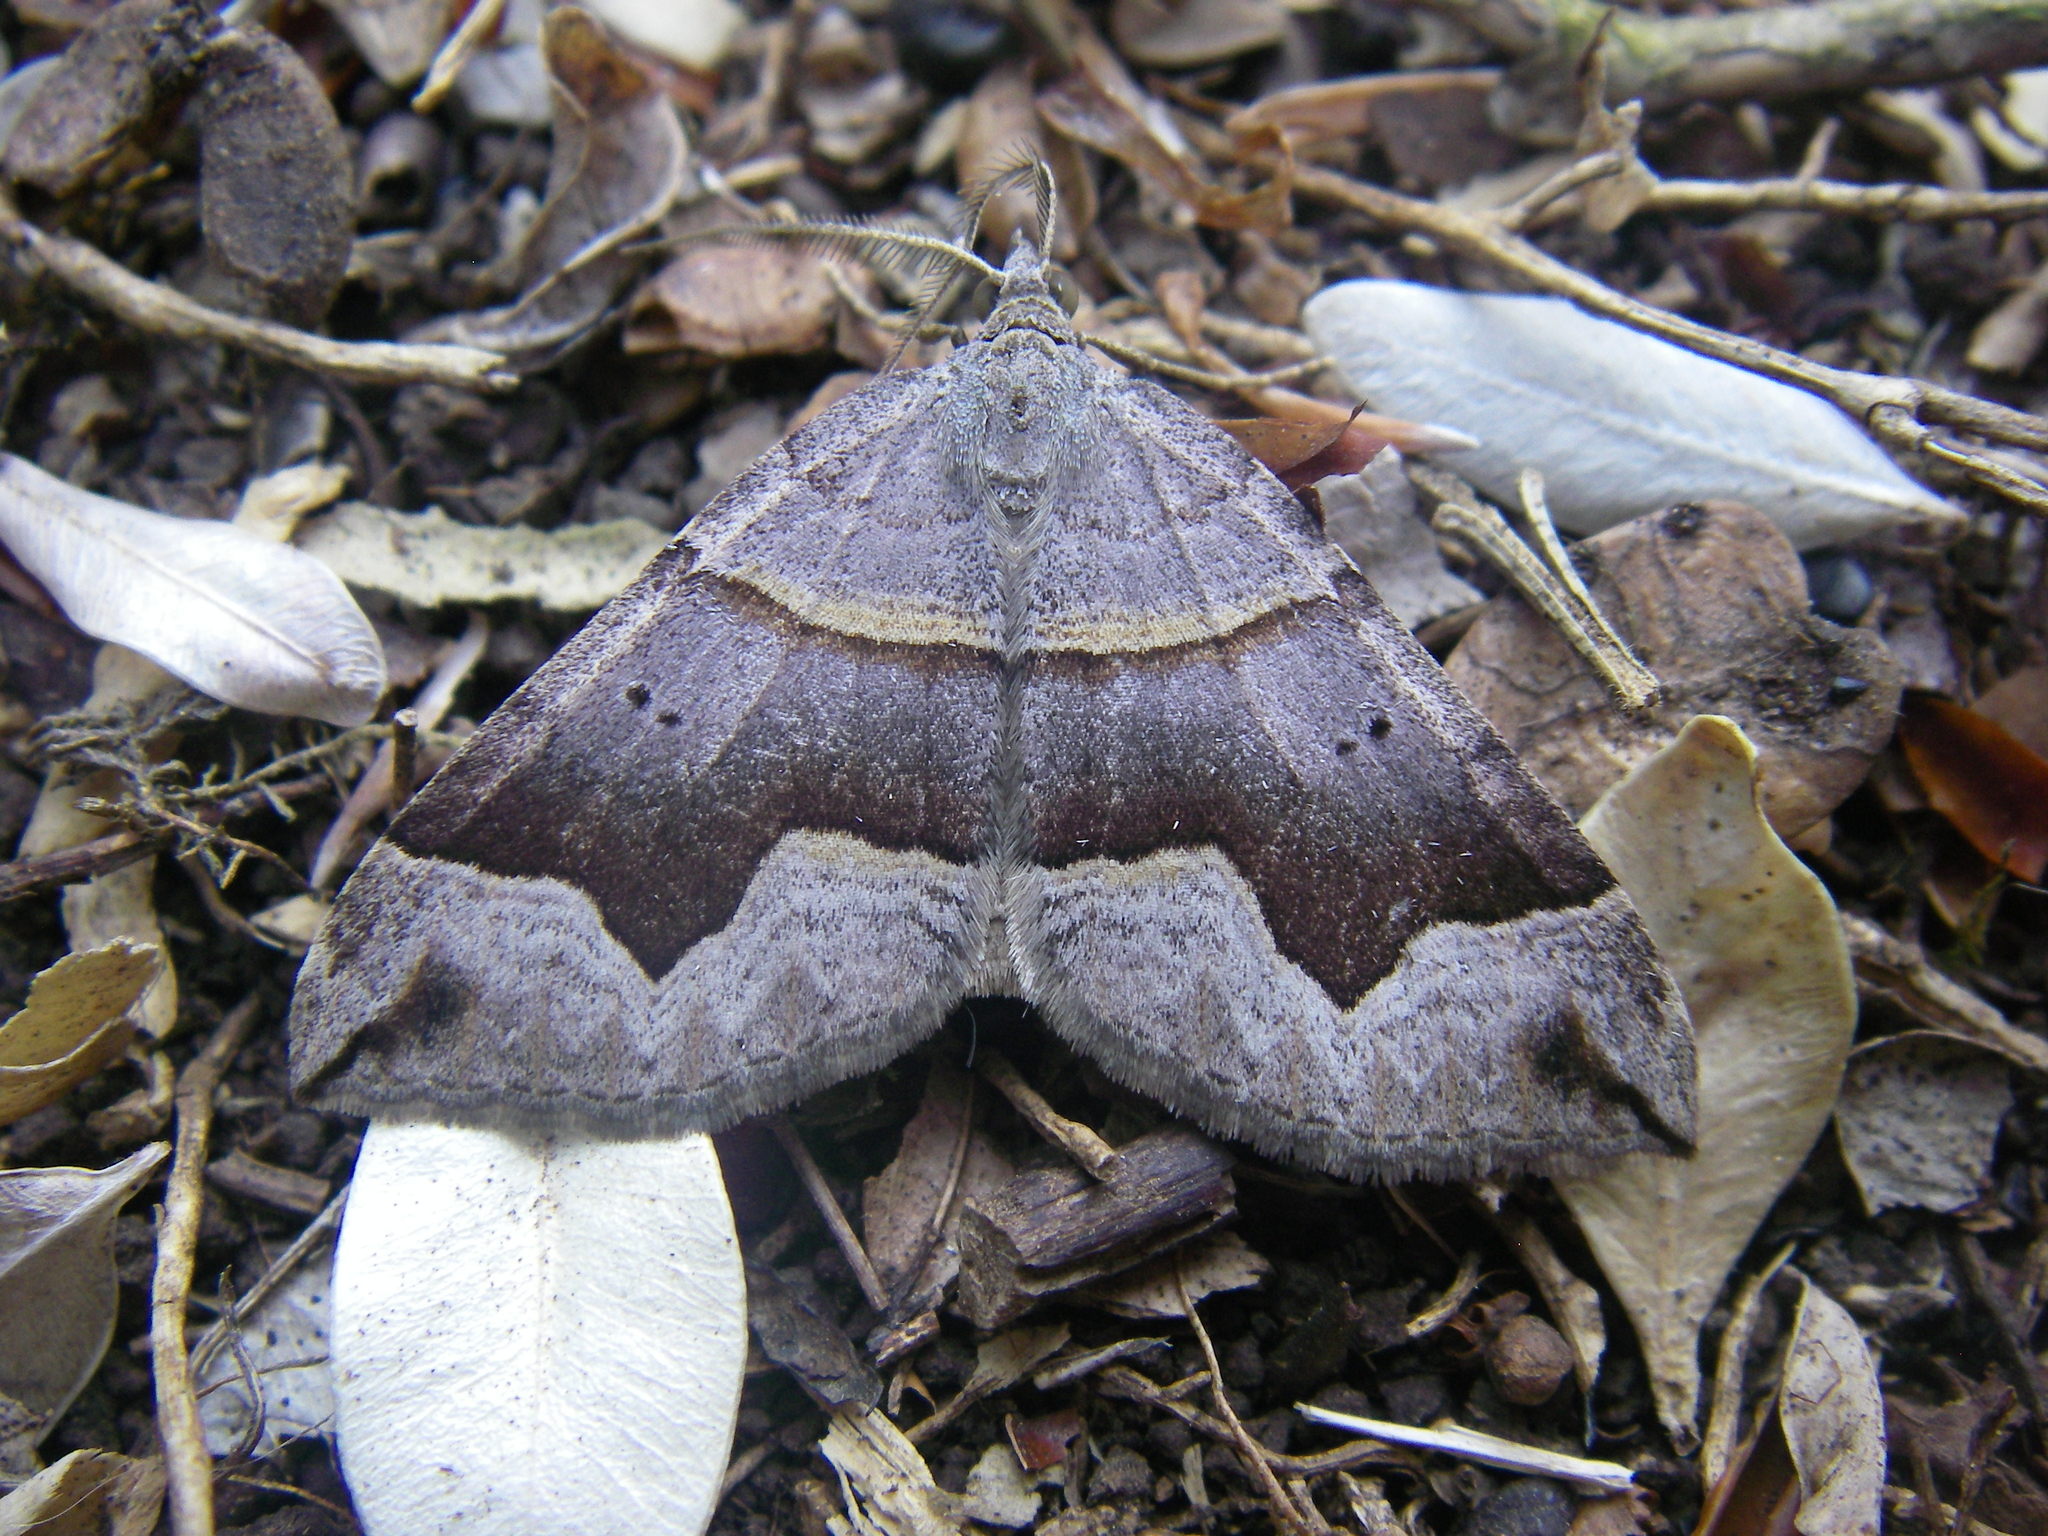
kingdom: Animalia
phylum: Arthropoda
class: Insecta
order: Lepidoptera
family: Geometridae
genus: Scotopteryx
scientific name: Scotopteryx moeniata
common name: Fortified carpet
